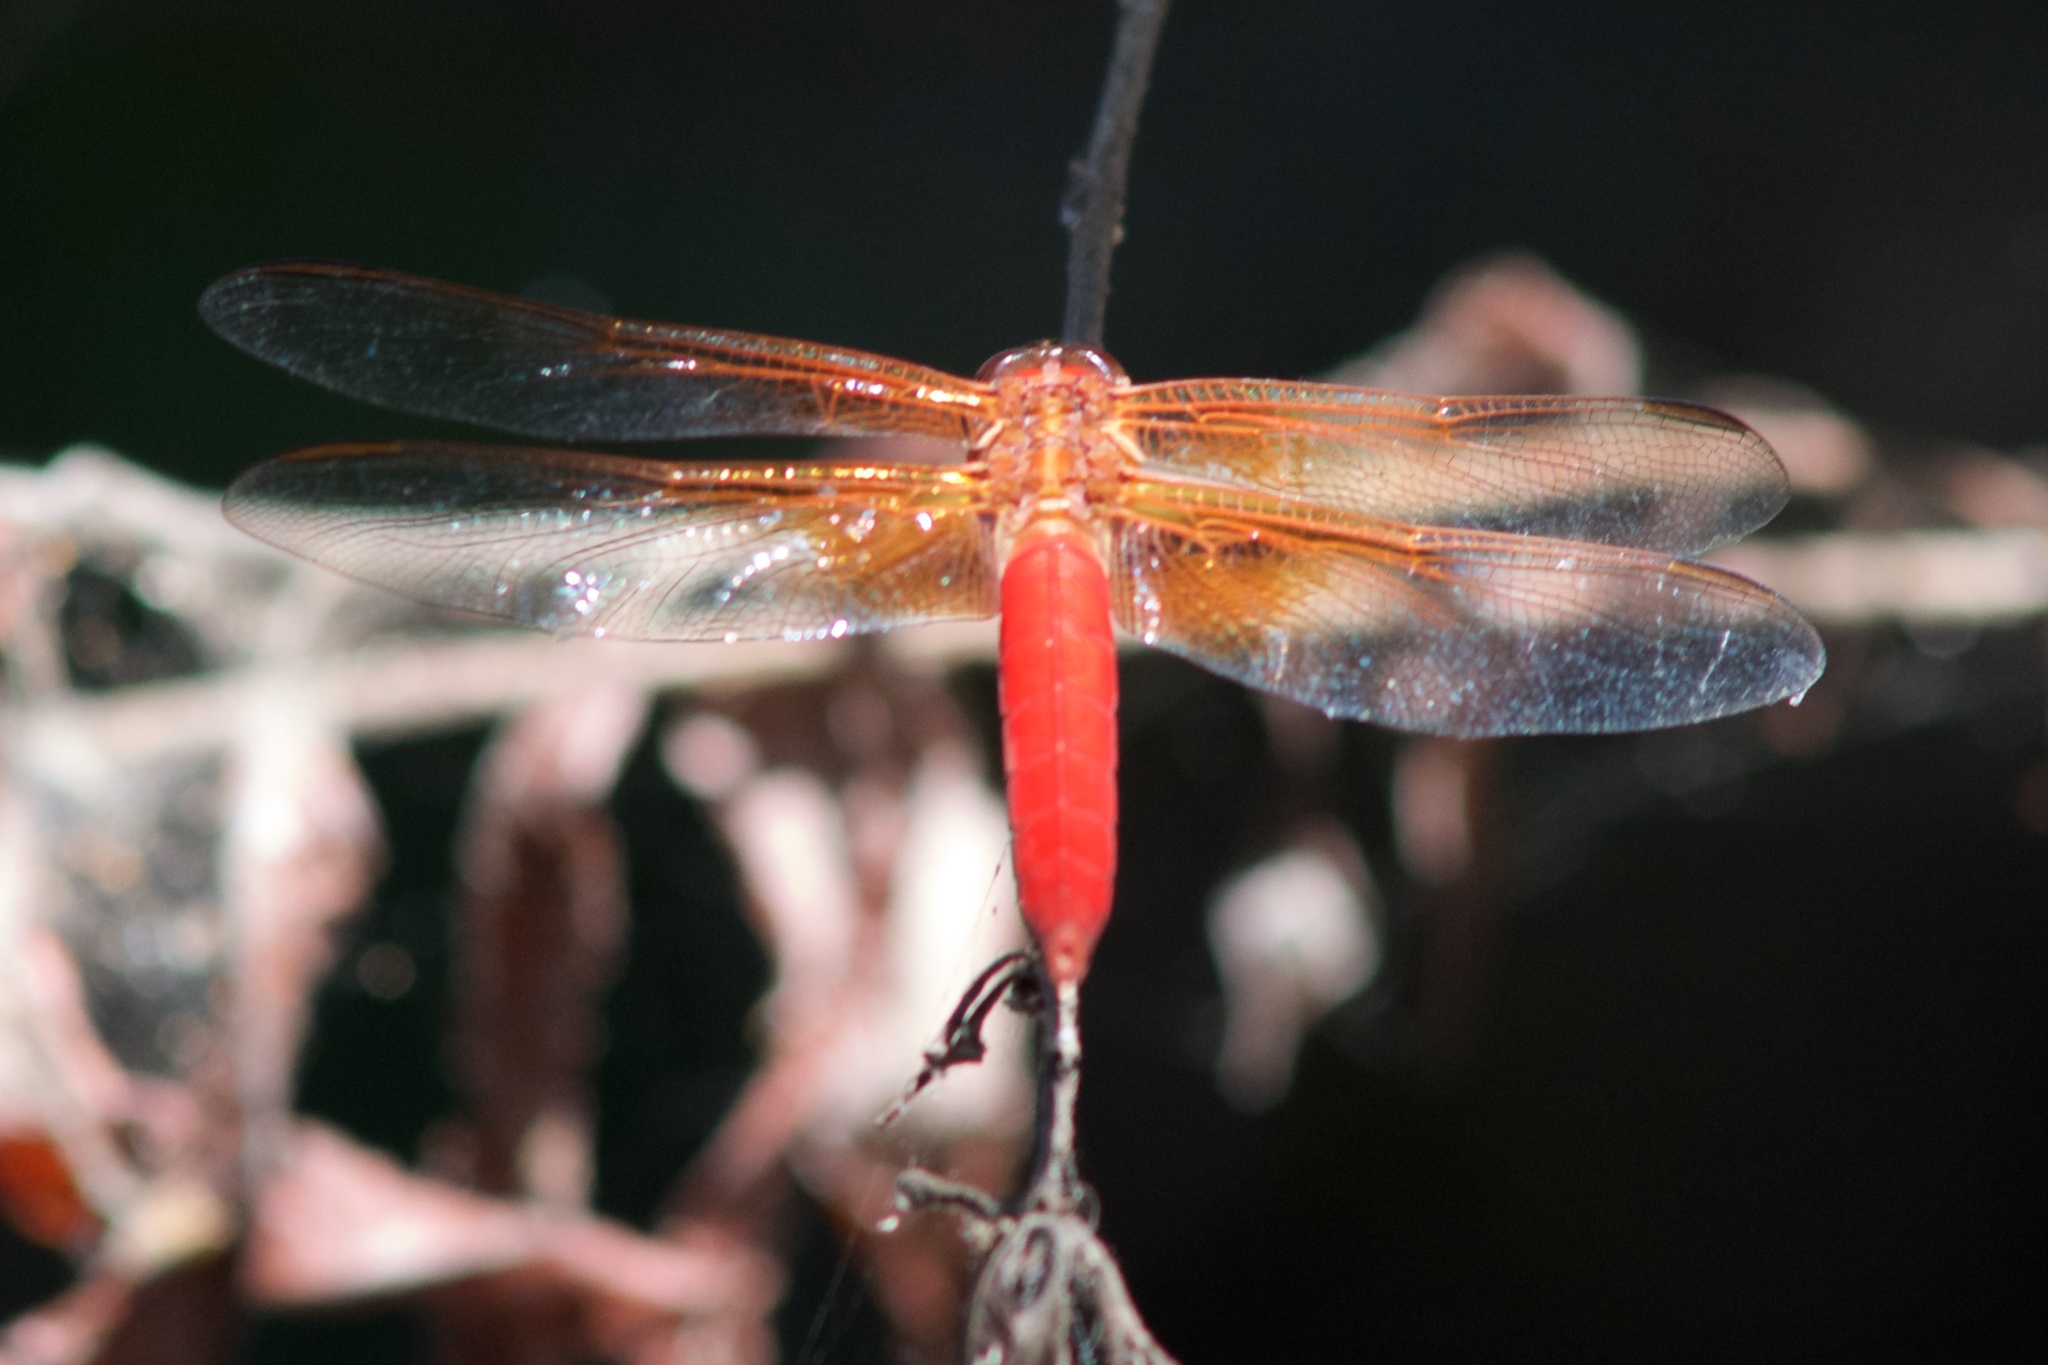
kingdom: Animalia
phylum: Arthropoda
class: Insecta
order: Odonata
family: Libellulidae
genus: Libellula
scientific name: Libellula croceipennis
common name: Neon skimmer
